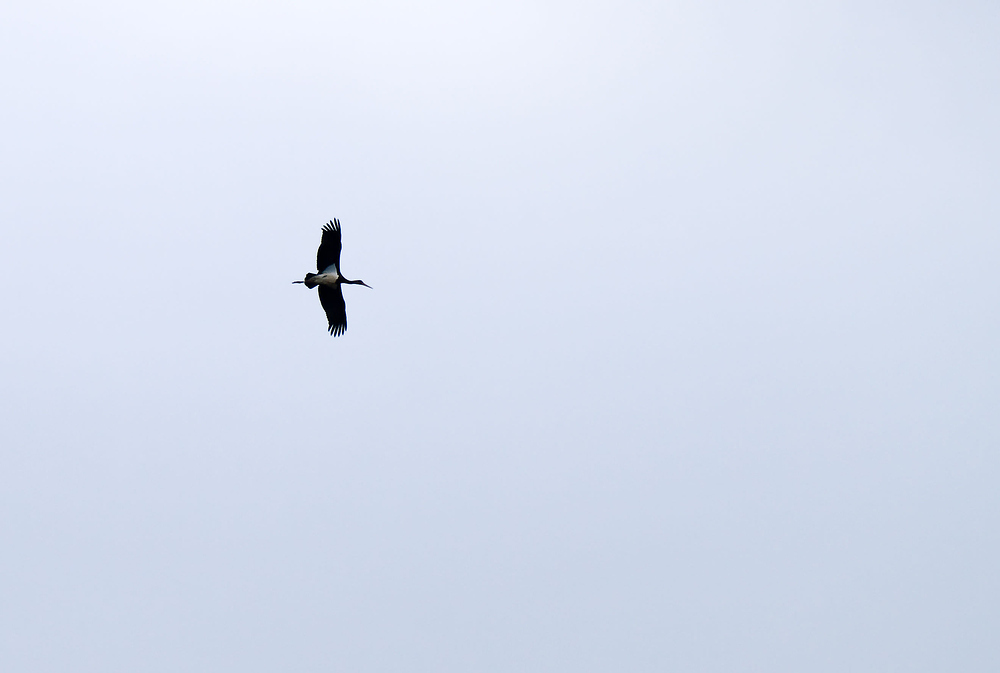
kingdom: Animalia
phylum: Chordata
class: Aves
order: Ciconiiformes
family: Ciconiidae
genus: Ciconia
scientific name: Ciconia nigra
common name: Black stork
